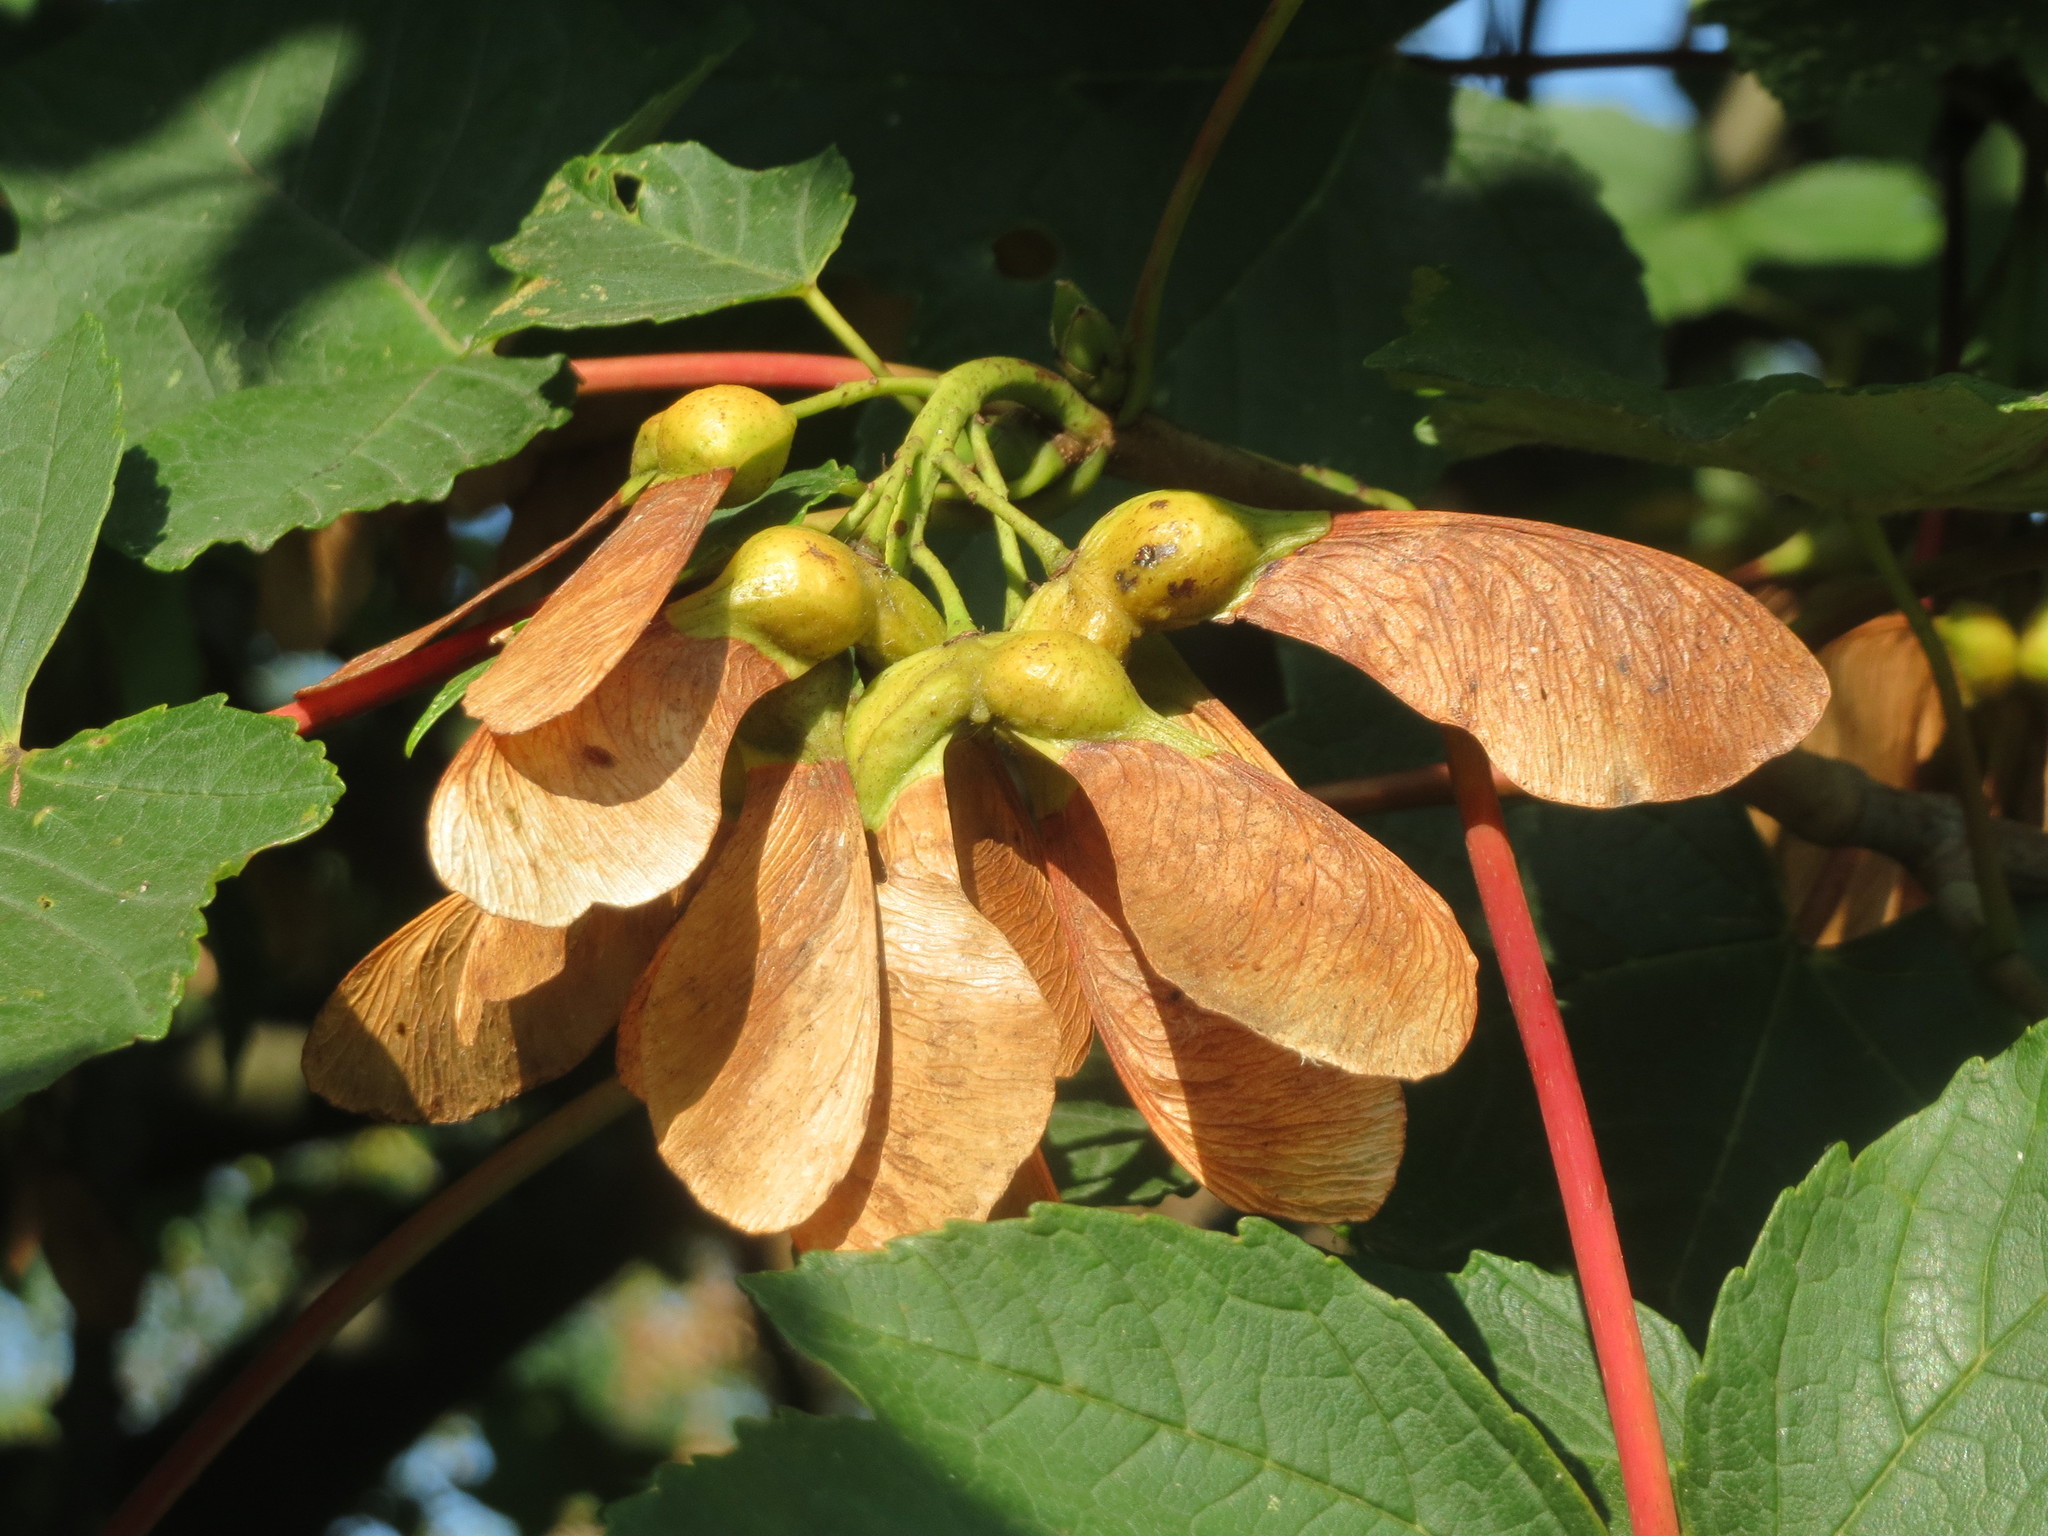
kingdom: Plantae
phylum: Tracheophyta
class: Magnoliopsida
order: Sapindales
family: Sapindaceae
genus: Acer
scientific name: Acer pseudoplatanus
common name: Sycamore
